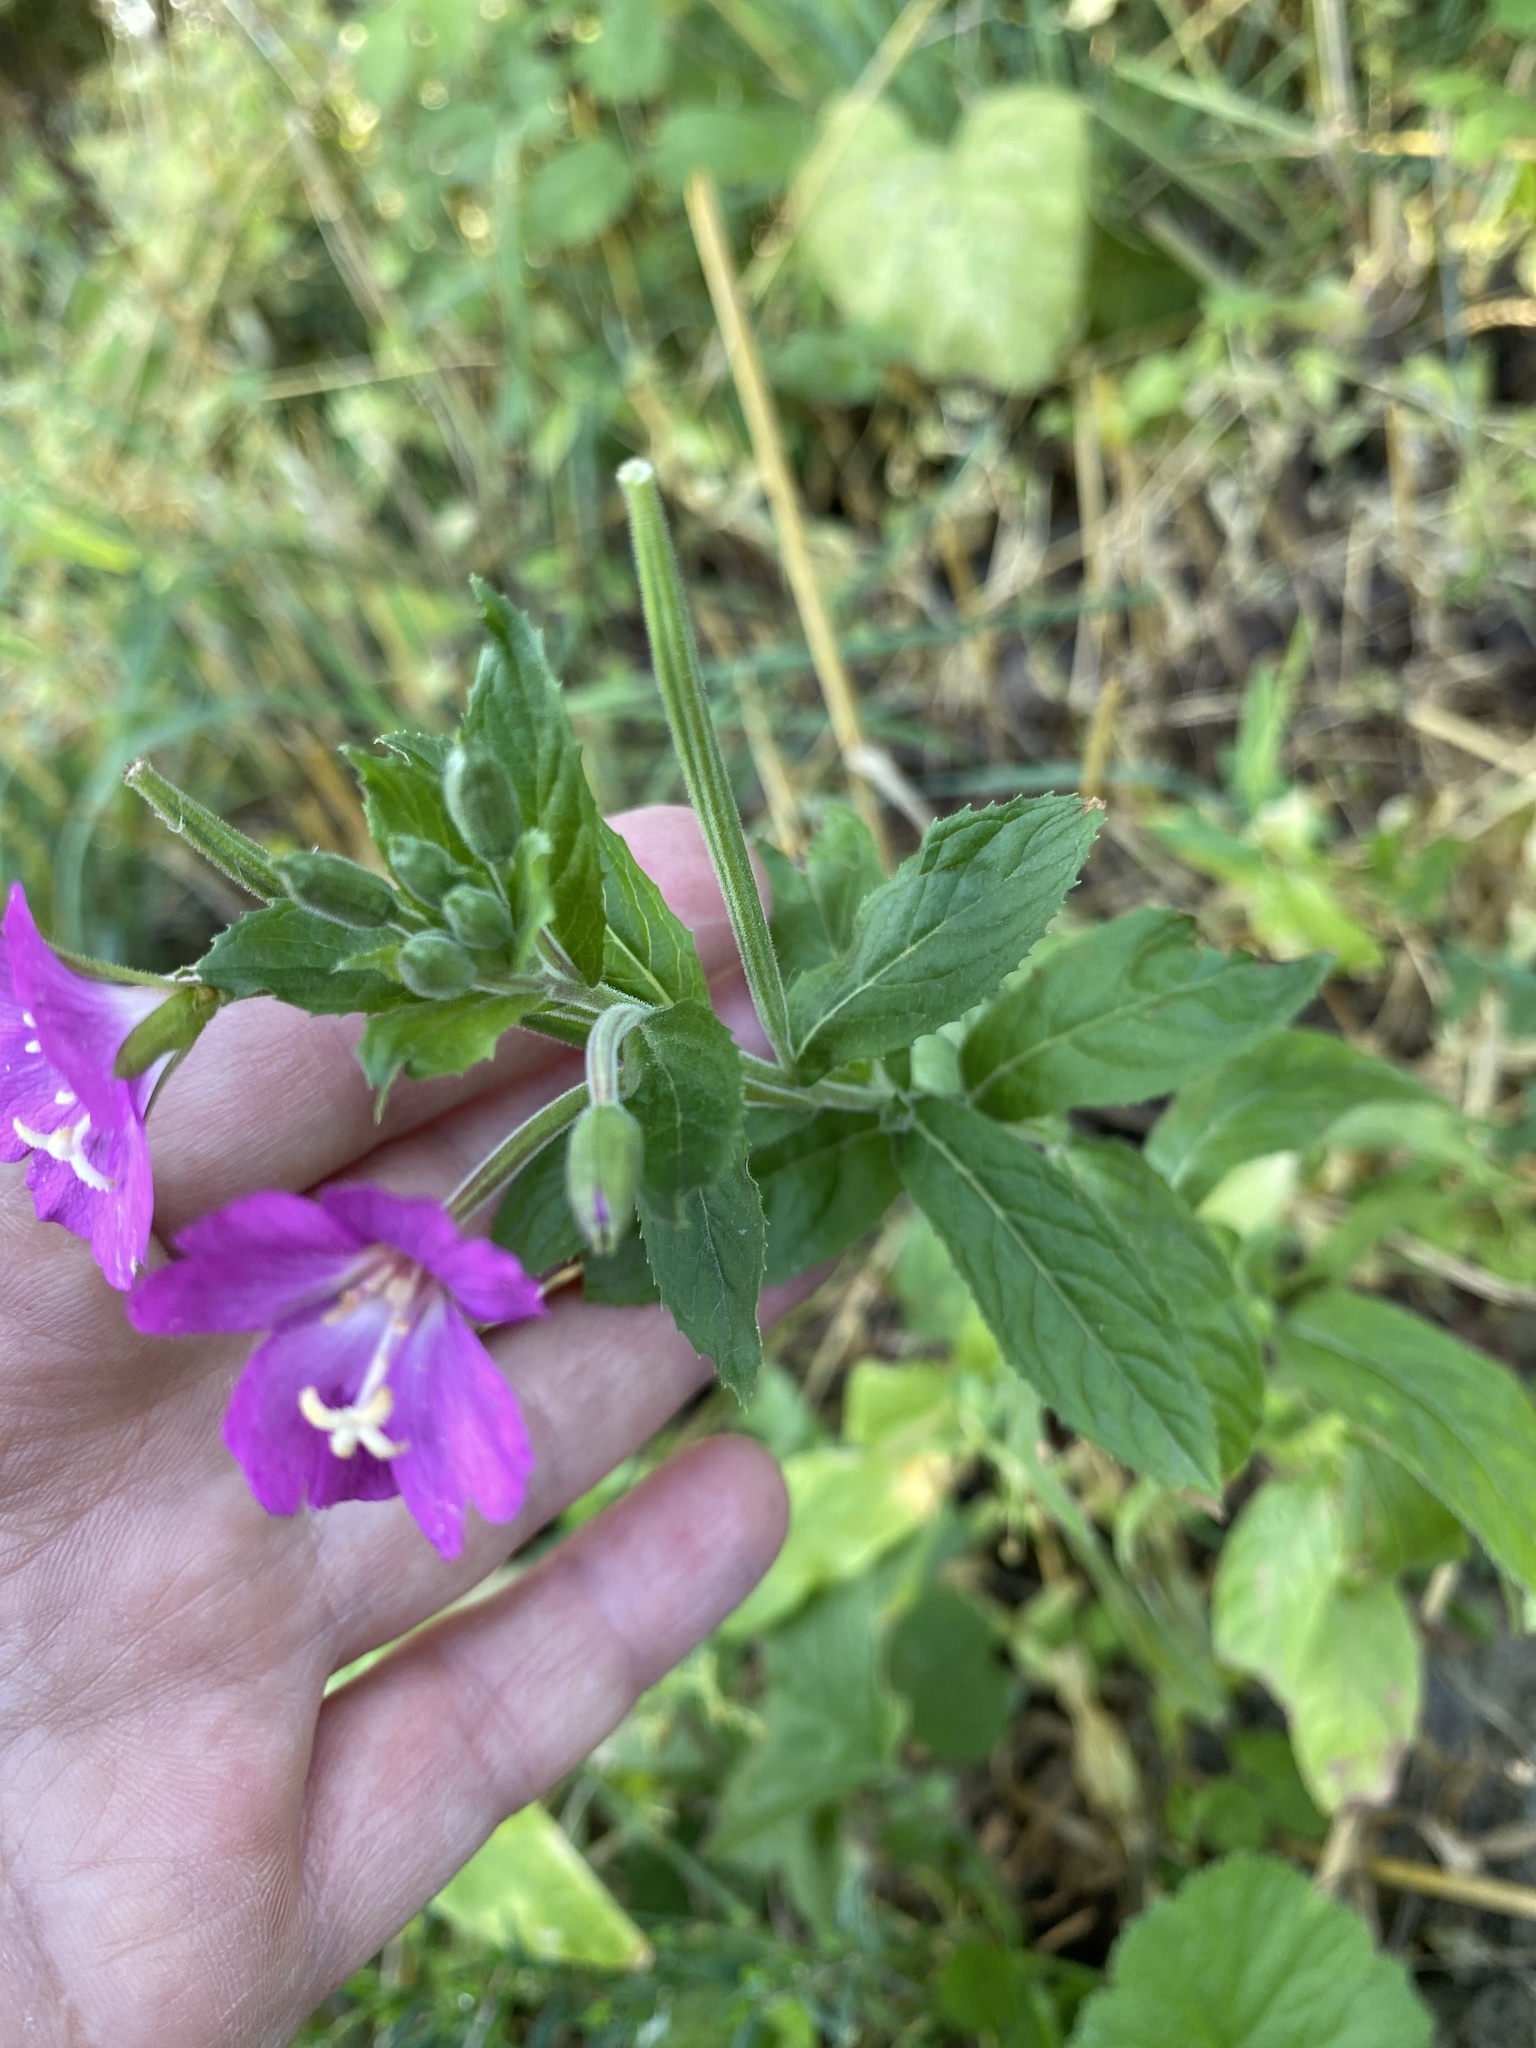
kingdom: Plantae
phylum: Tracheophyta
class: Magnoliopsida
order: Myrtales
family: Onagraceae
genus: Epilobium
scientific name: Epilobium hirsutum
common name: Great willowherb
